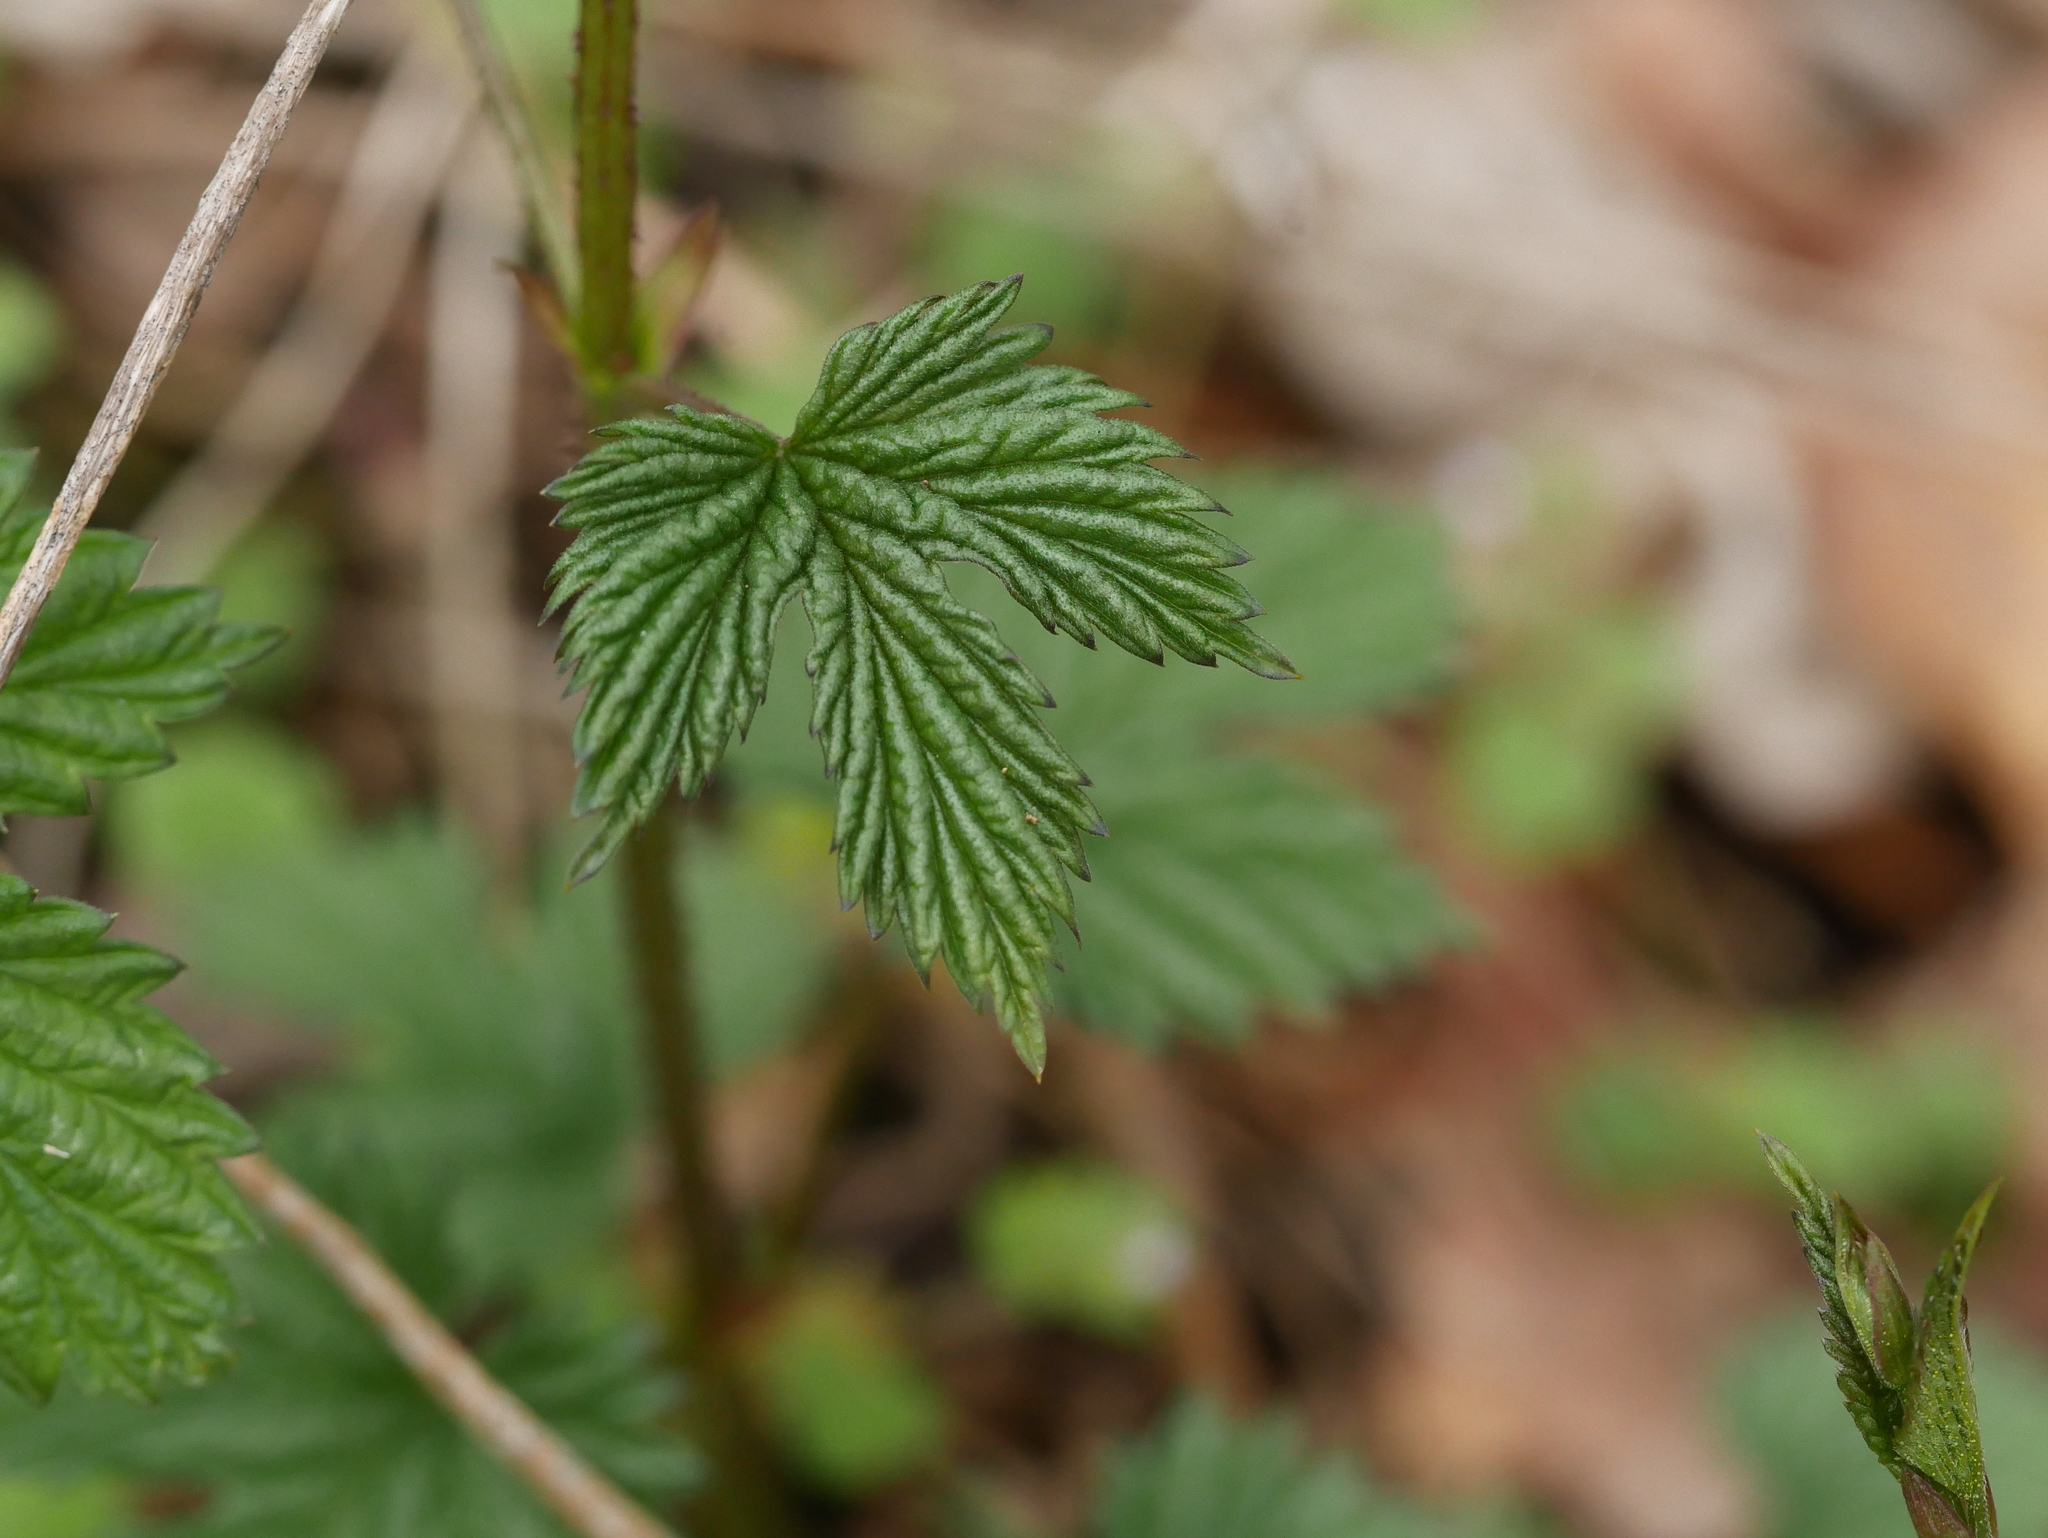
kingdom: Plantae
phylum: Tracheophyta
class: Magnoliopsida
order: Rosales
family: Cannabaceae
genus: Humulus
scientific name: Humulus lupulus
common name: Hop
